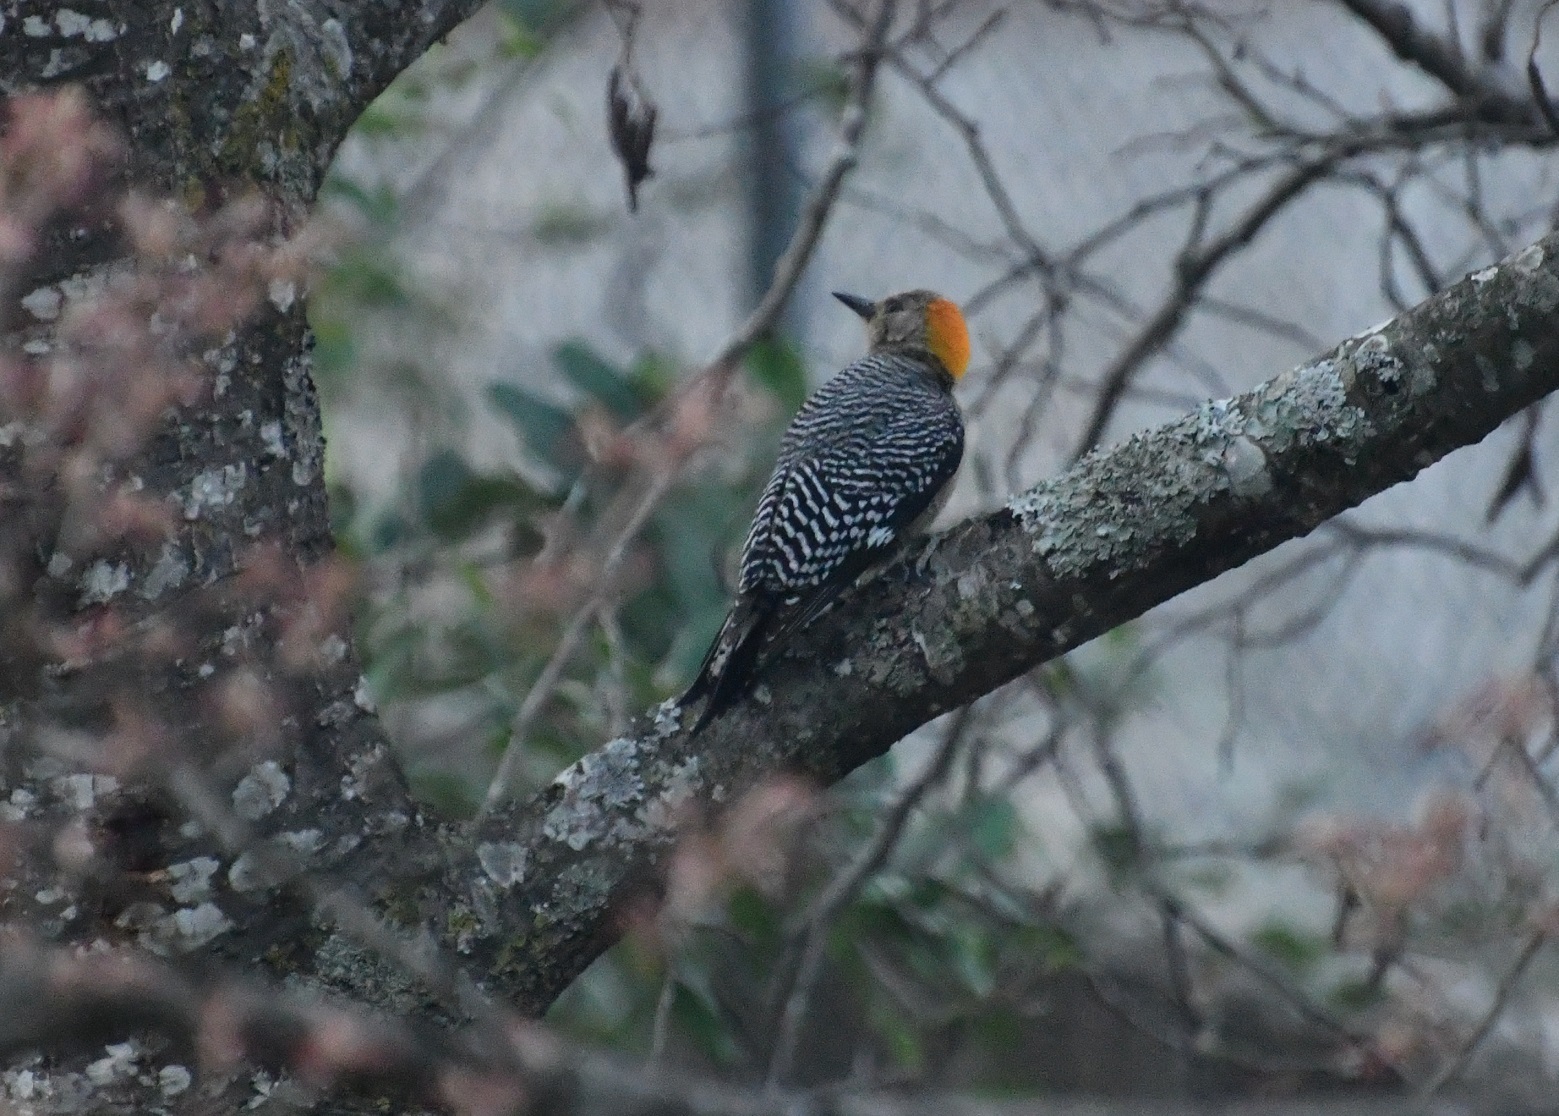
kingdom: Animalia
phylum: Chordata
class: Aves
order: Piciformes
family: Picidae
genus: Melanerpes
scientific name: Melanerpes aurifrons
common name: Golden-fronted woodpecker
